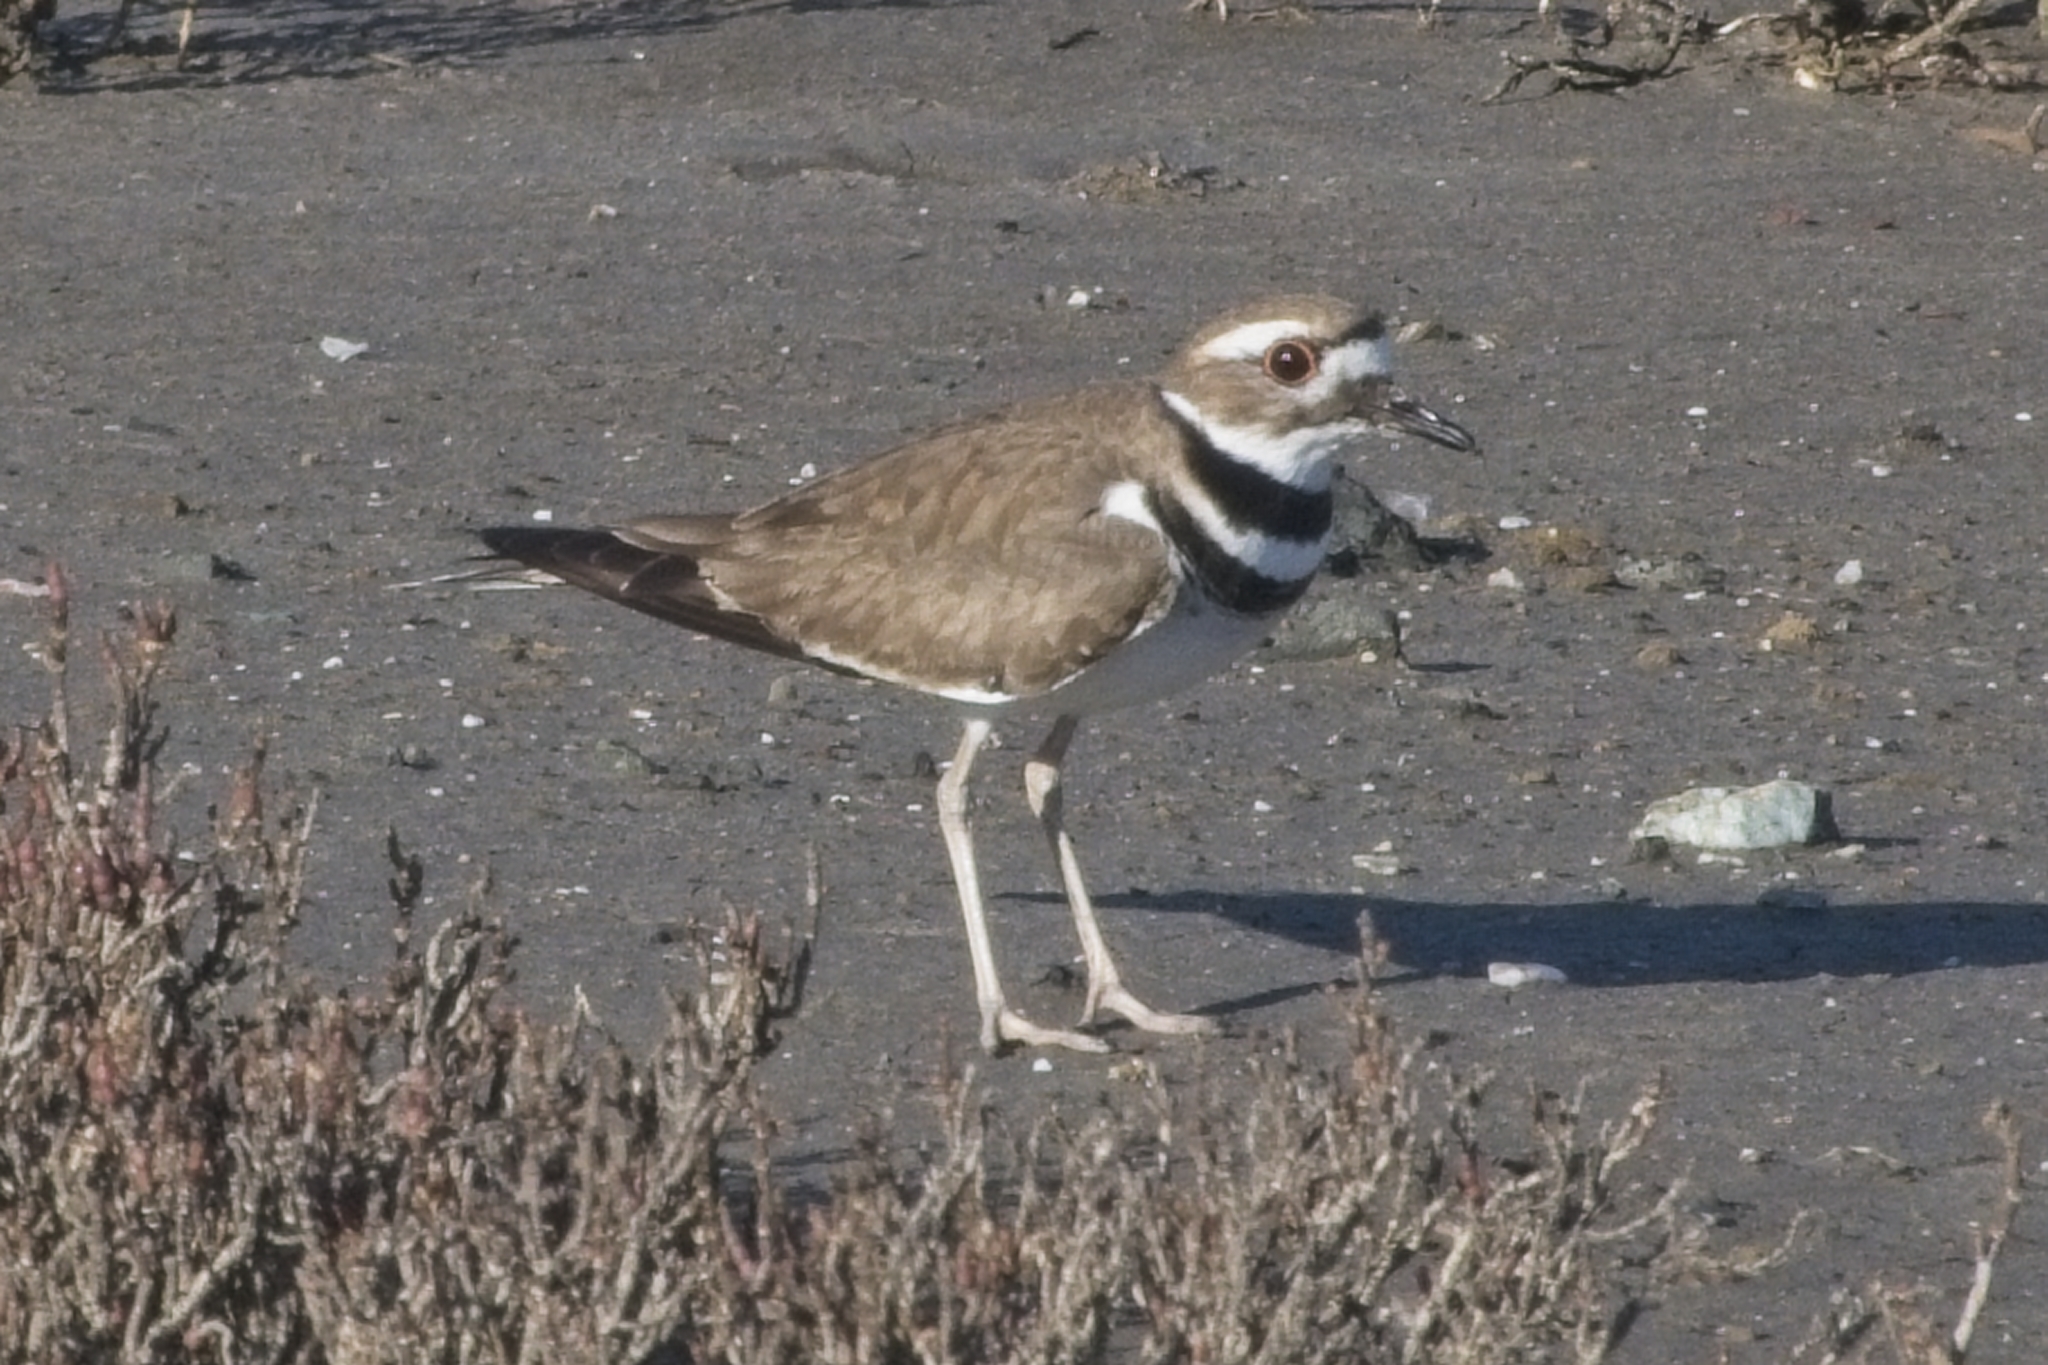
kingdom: Animalia
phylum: Chordata
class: Aves
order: Charadriiformes
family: Charadriidae
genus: Charadrius
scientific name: Charadrius vociferus
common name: Killdeer
